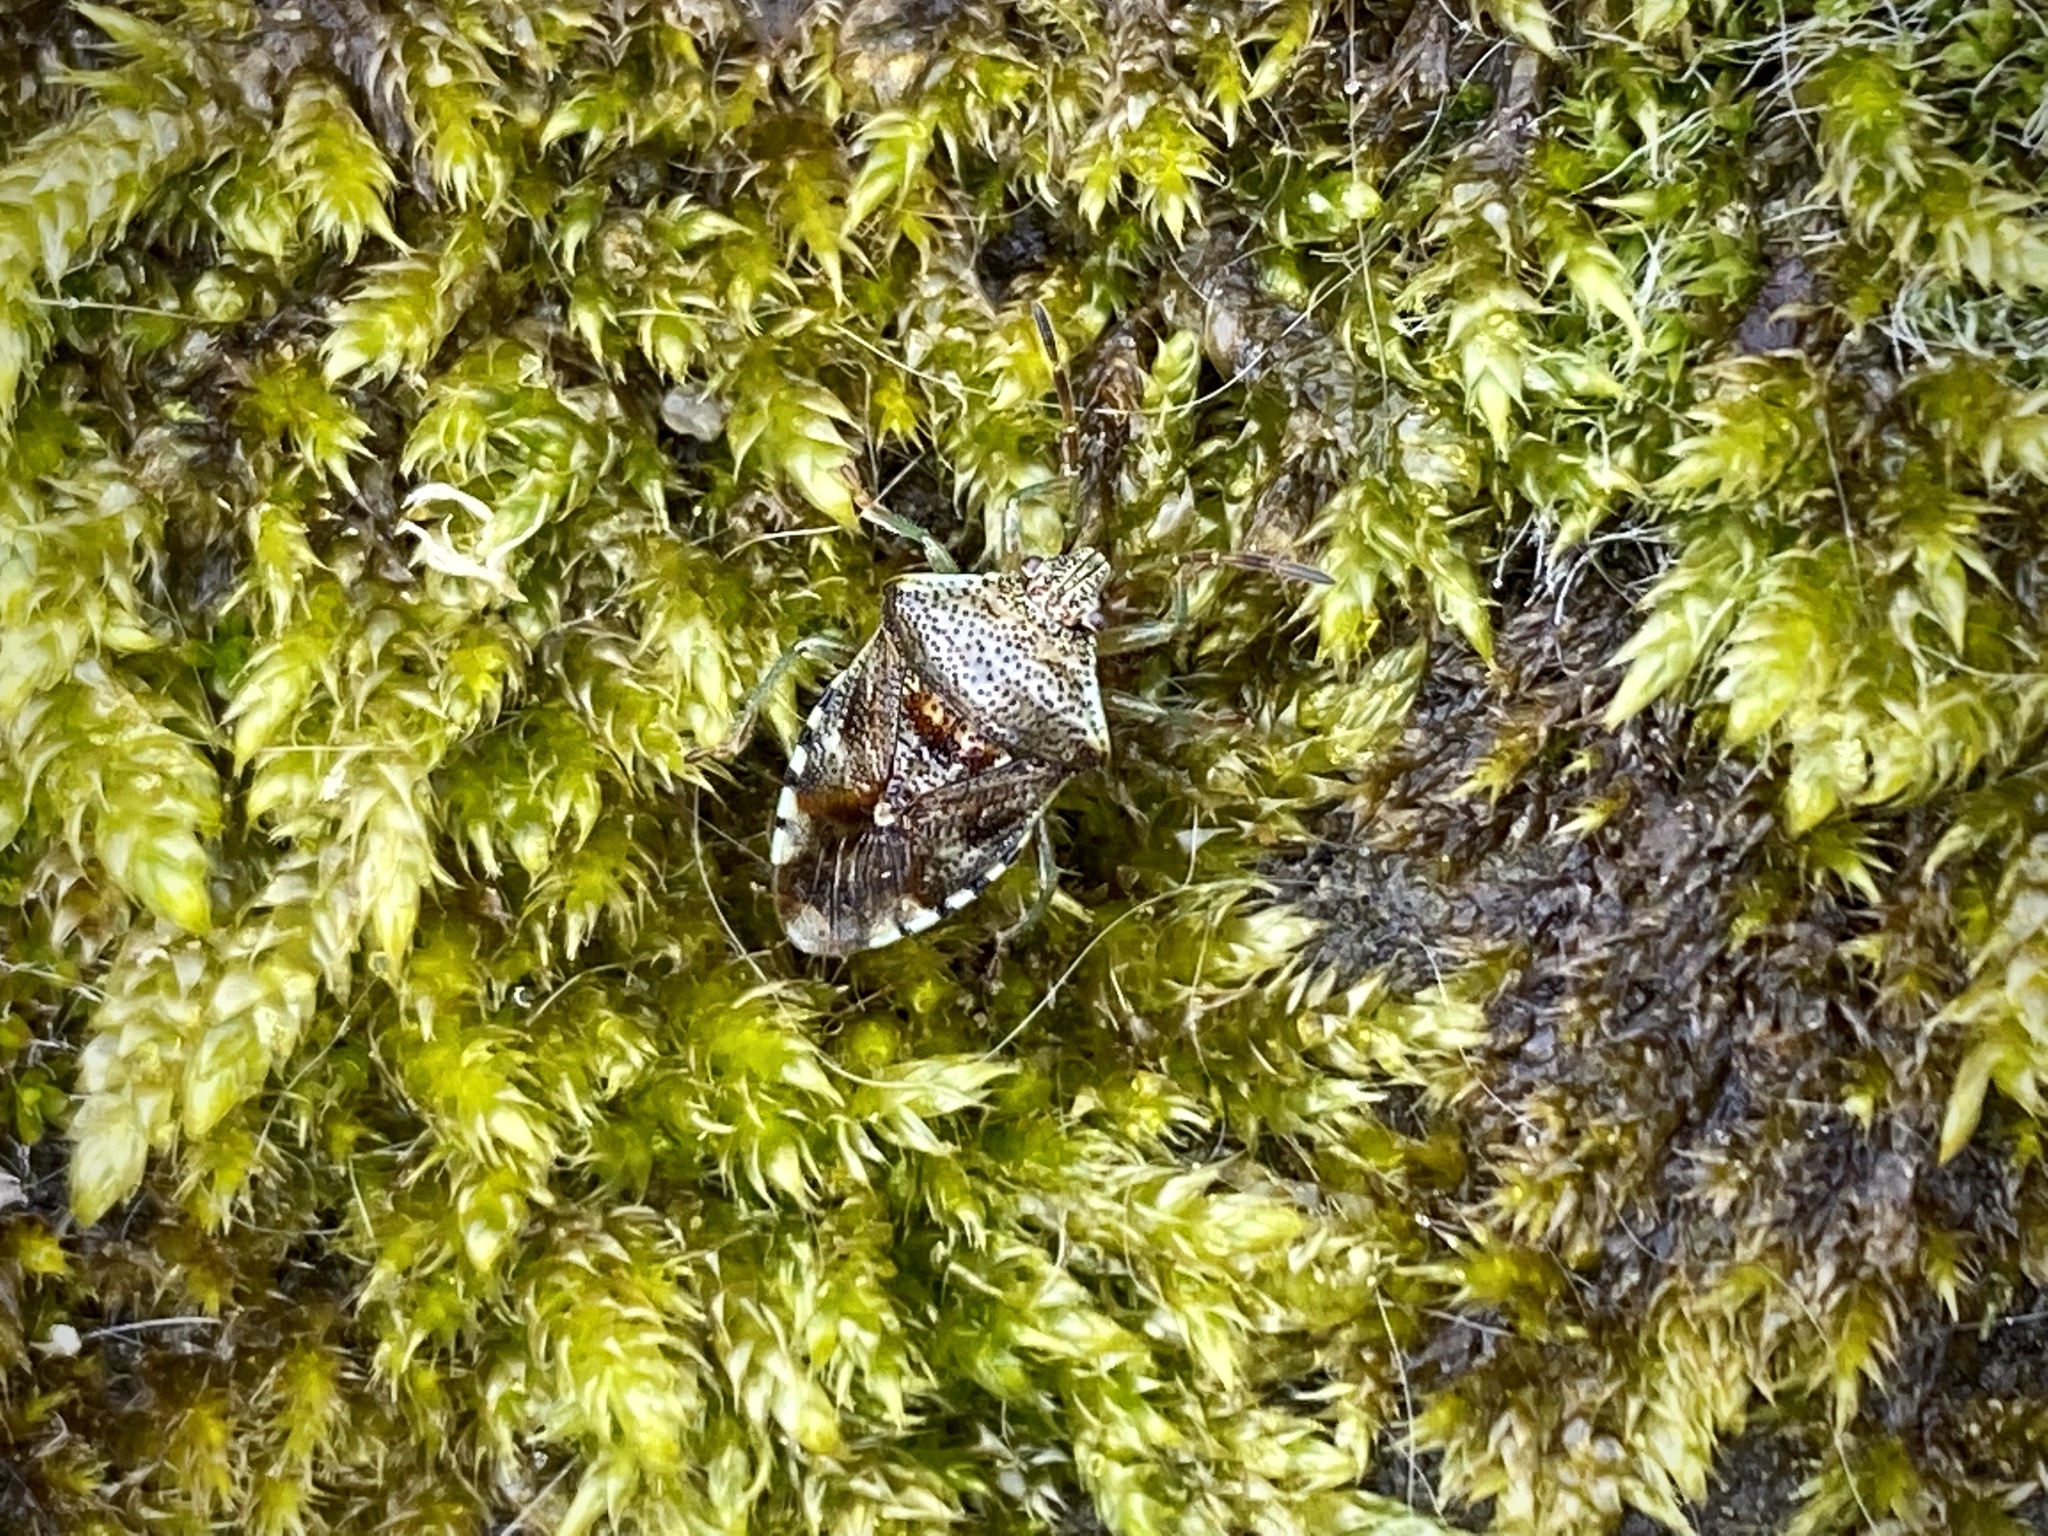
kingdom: Animalia
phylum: Arthropoda
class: Insecta
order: Hemiptera
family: Acanthosomatidae
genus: Elasmucha
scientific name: Elasmucha grisea
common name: Parent bug
